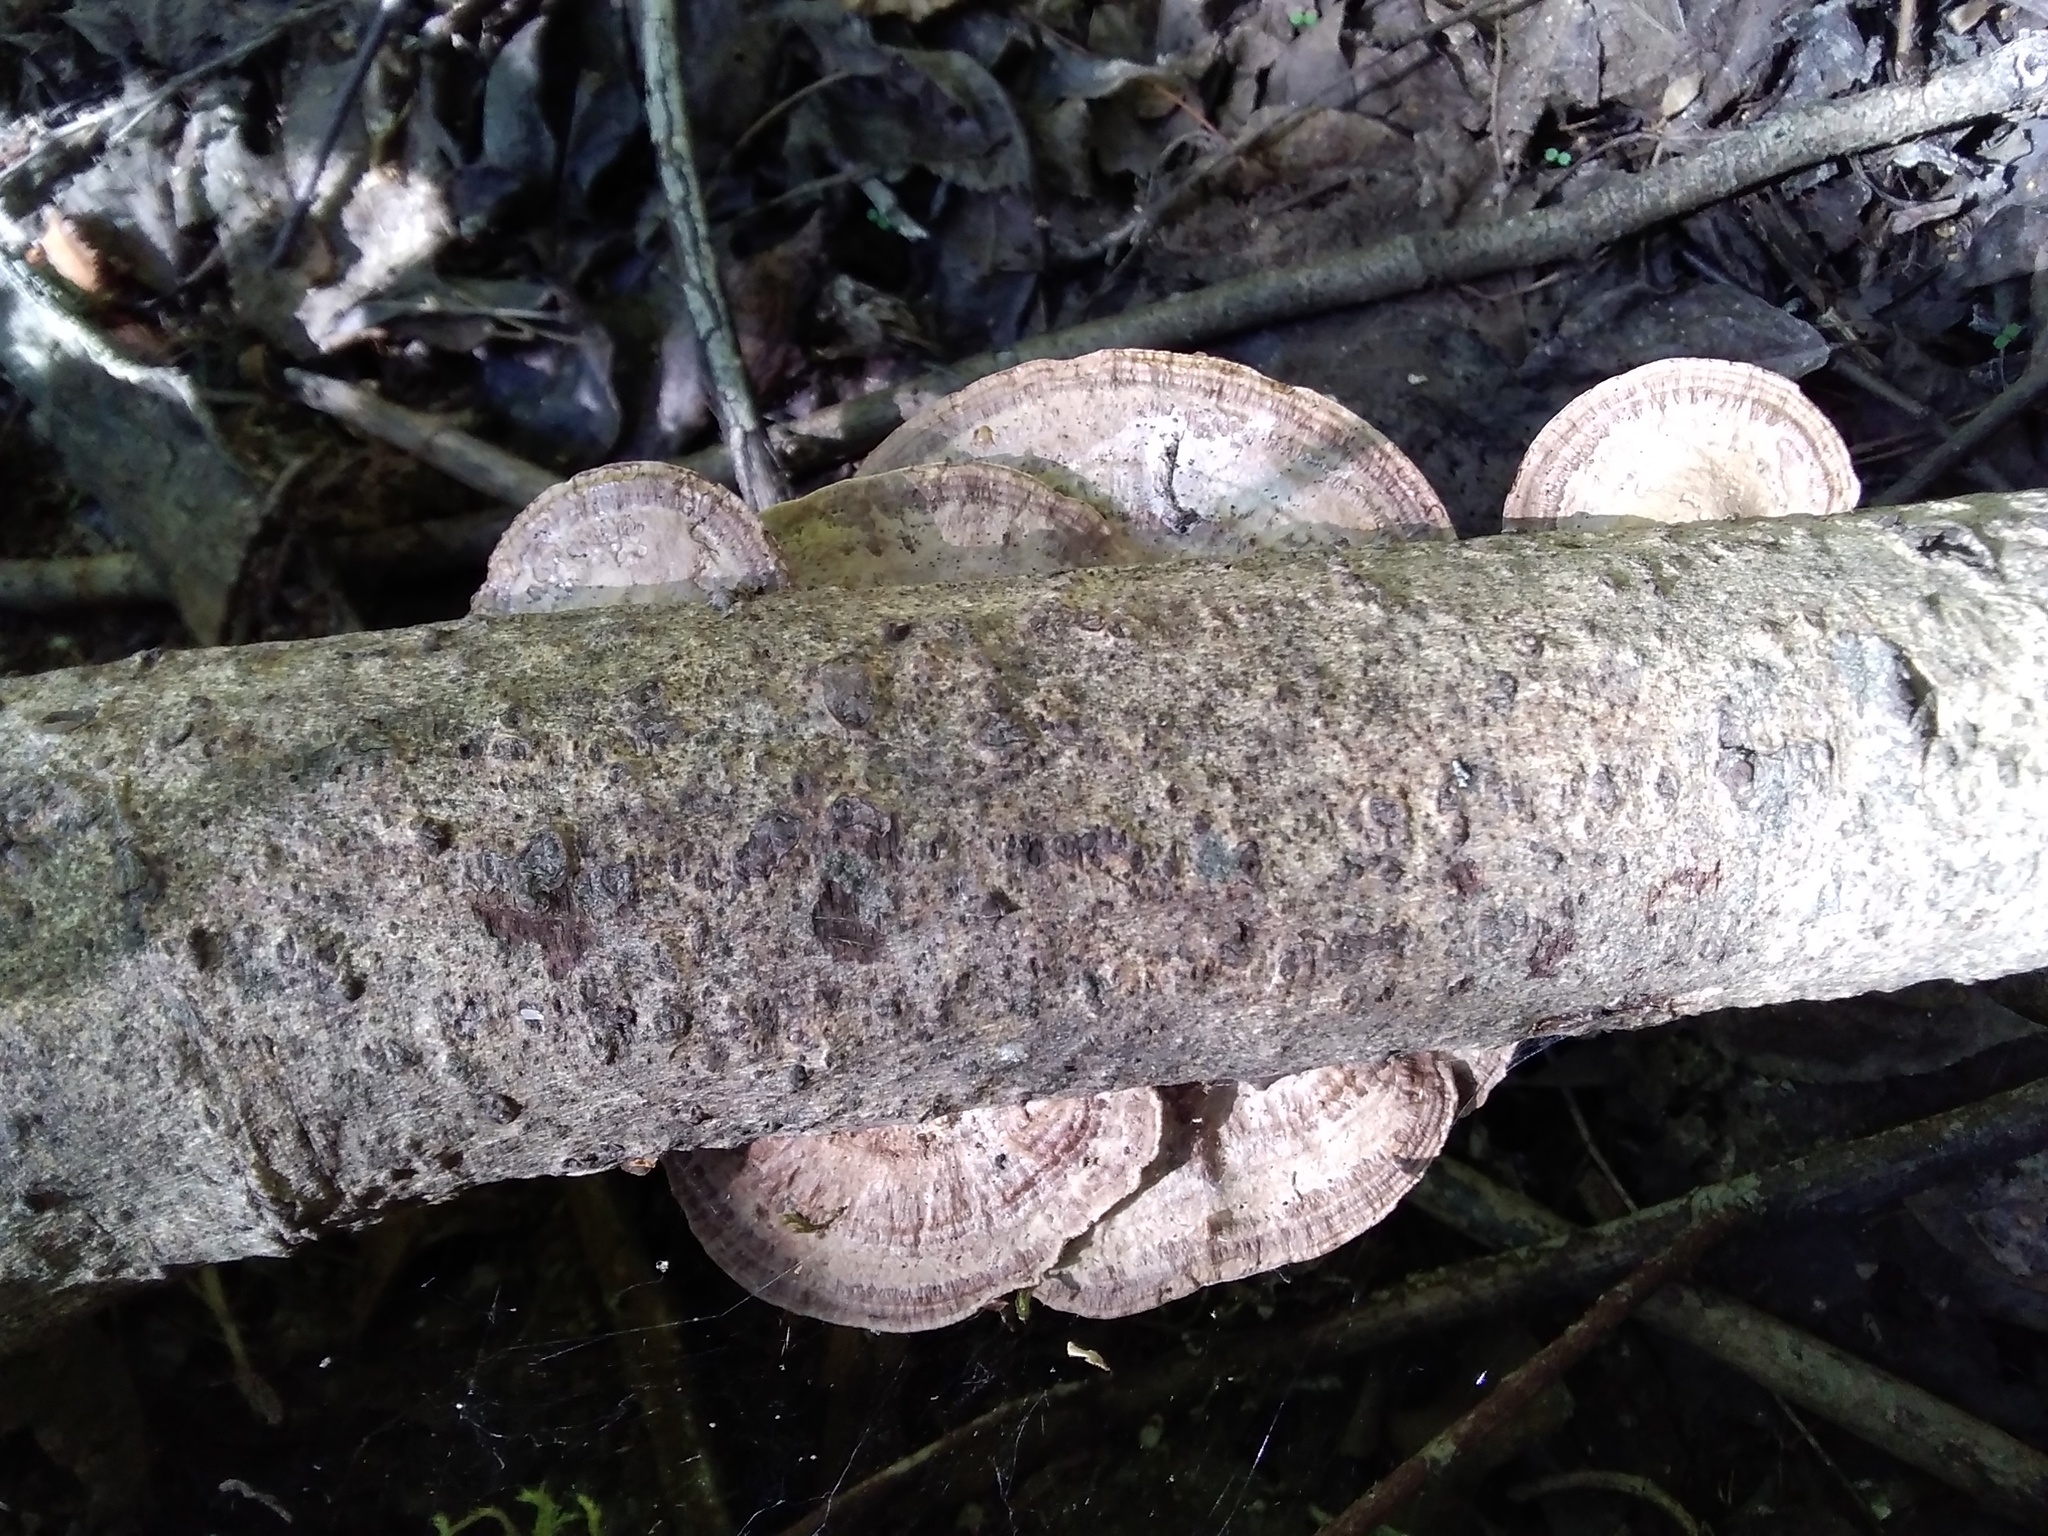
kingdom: Fungi
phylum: Basidiomycota
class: Agaricomycetes
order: Polyporales
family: Polyporaceae
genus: Daedaleopsis
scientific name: Daedaleopsis confragosa
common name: Blushing bracket
